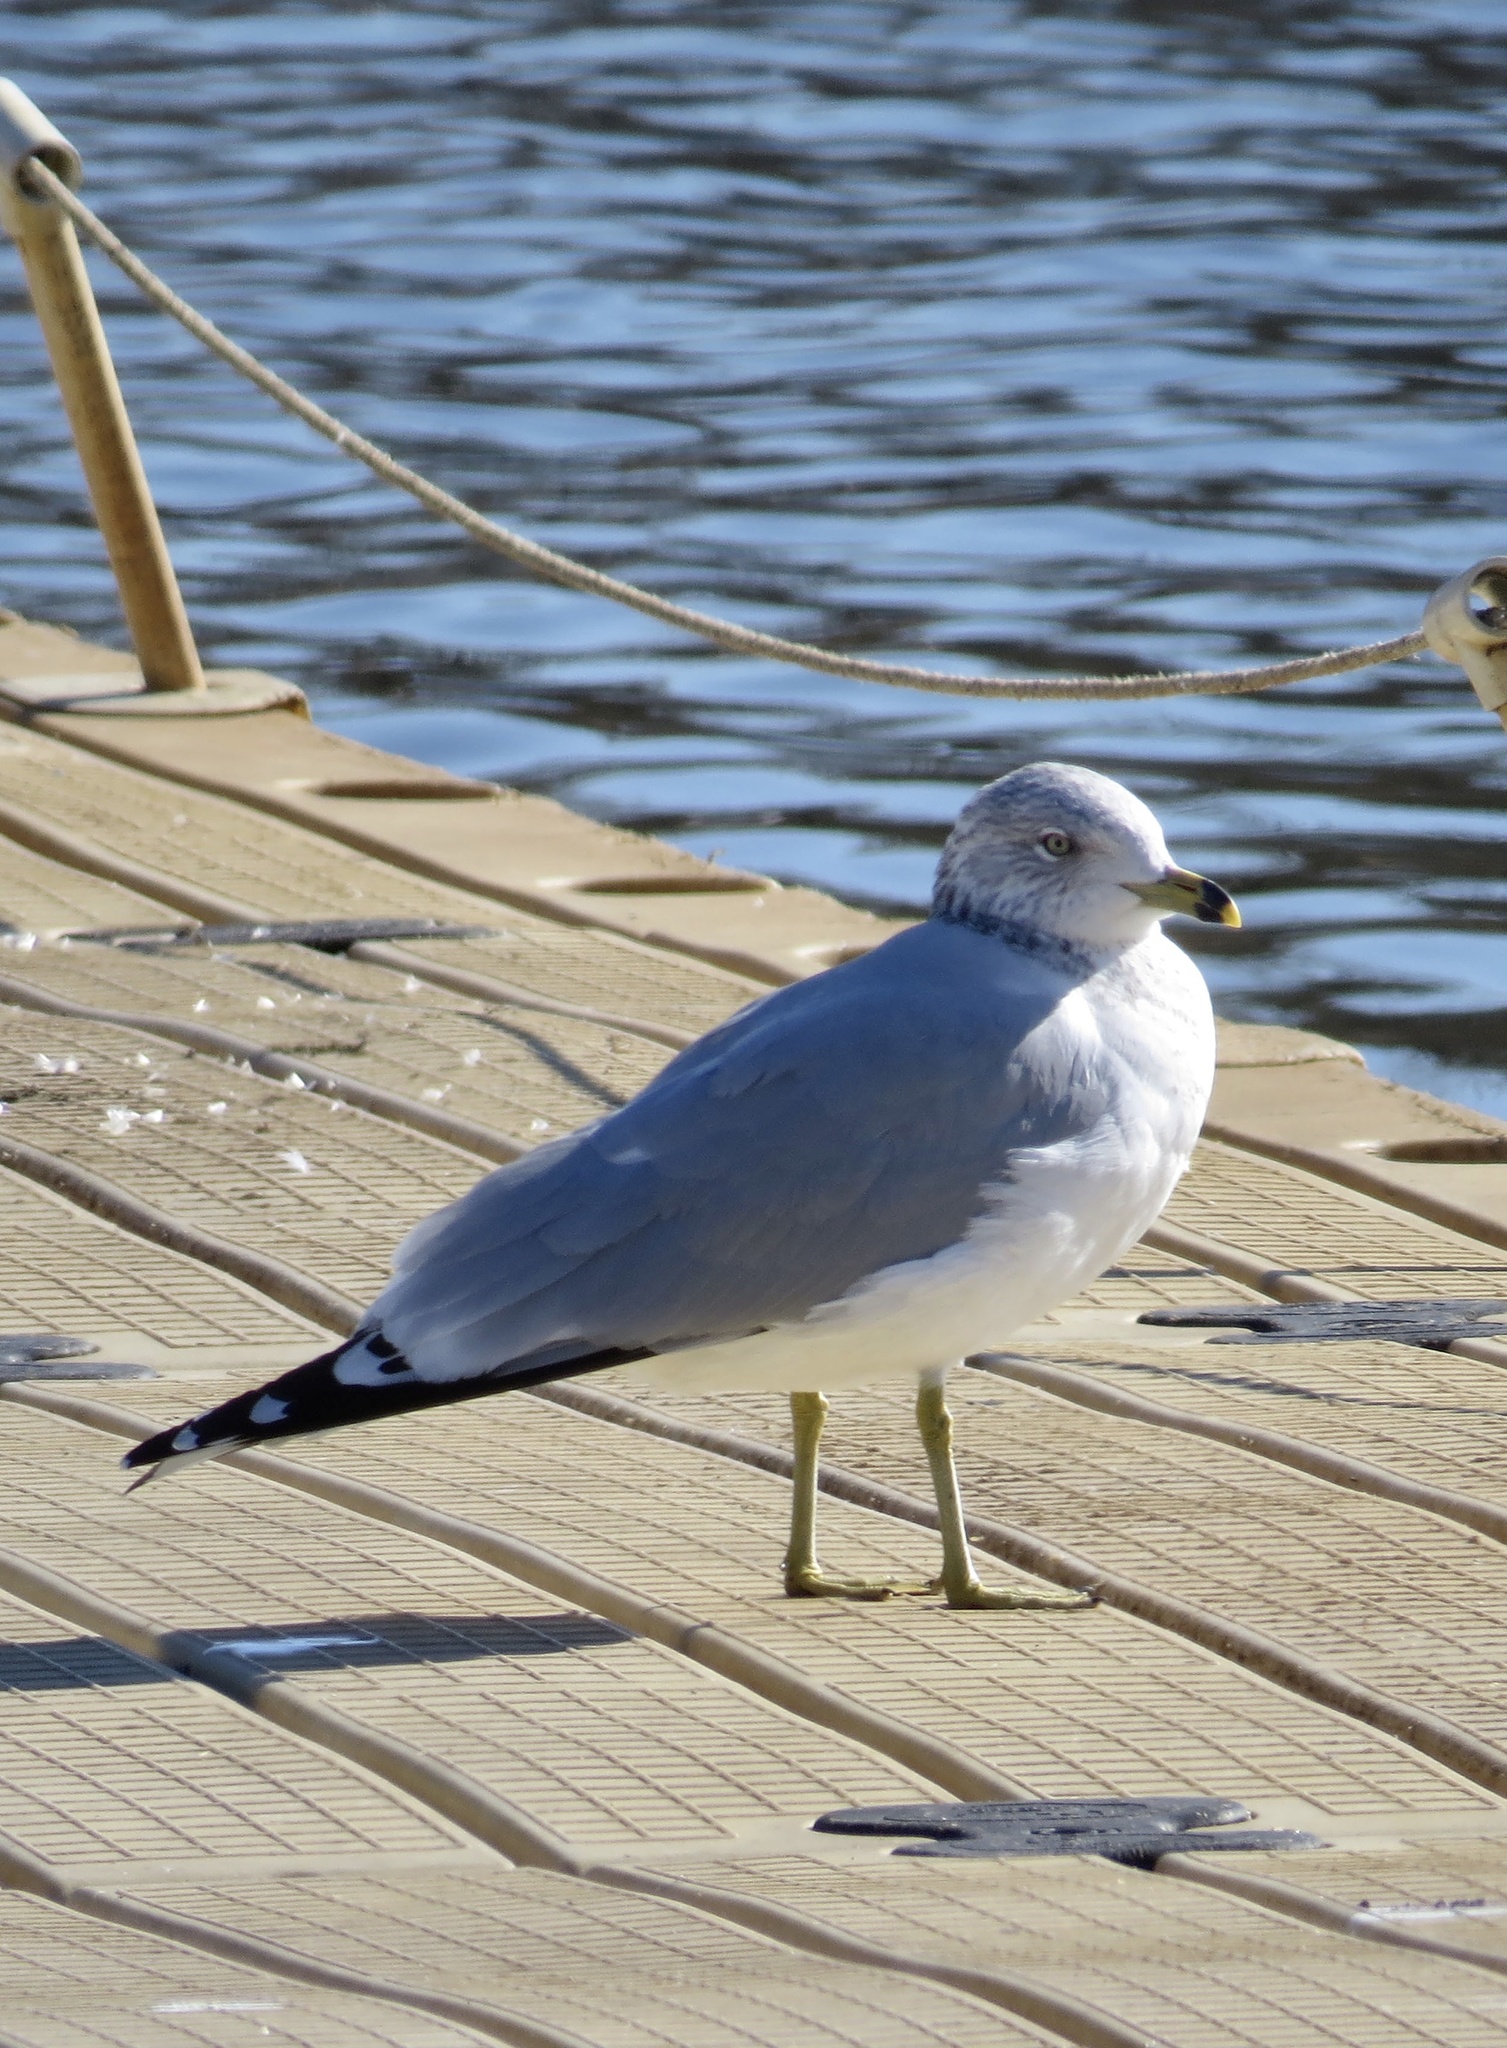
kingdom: Animalia
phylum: Chordata
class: Aves
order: Charadriiformes
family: Laridae
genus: Larus
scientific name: Larus delawarensis
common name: Ring-billed gull
